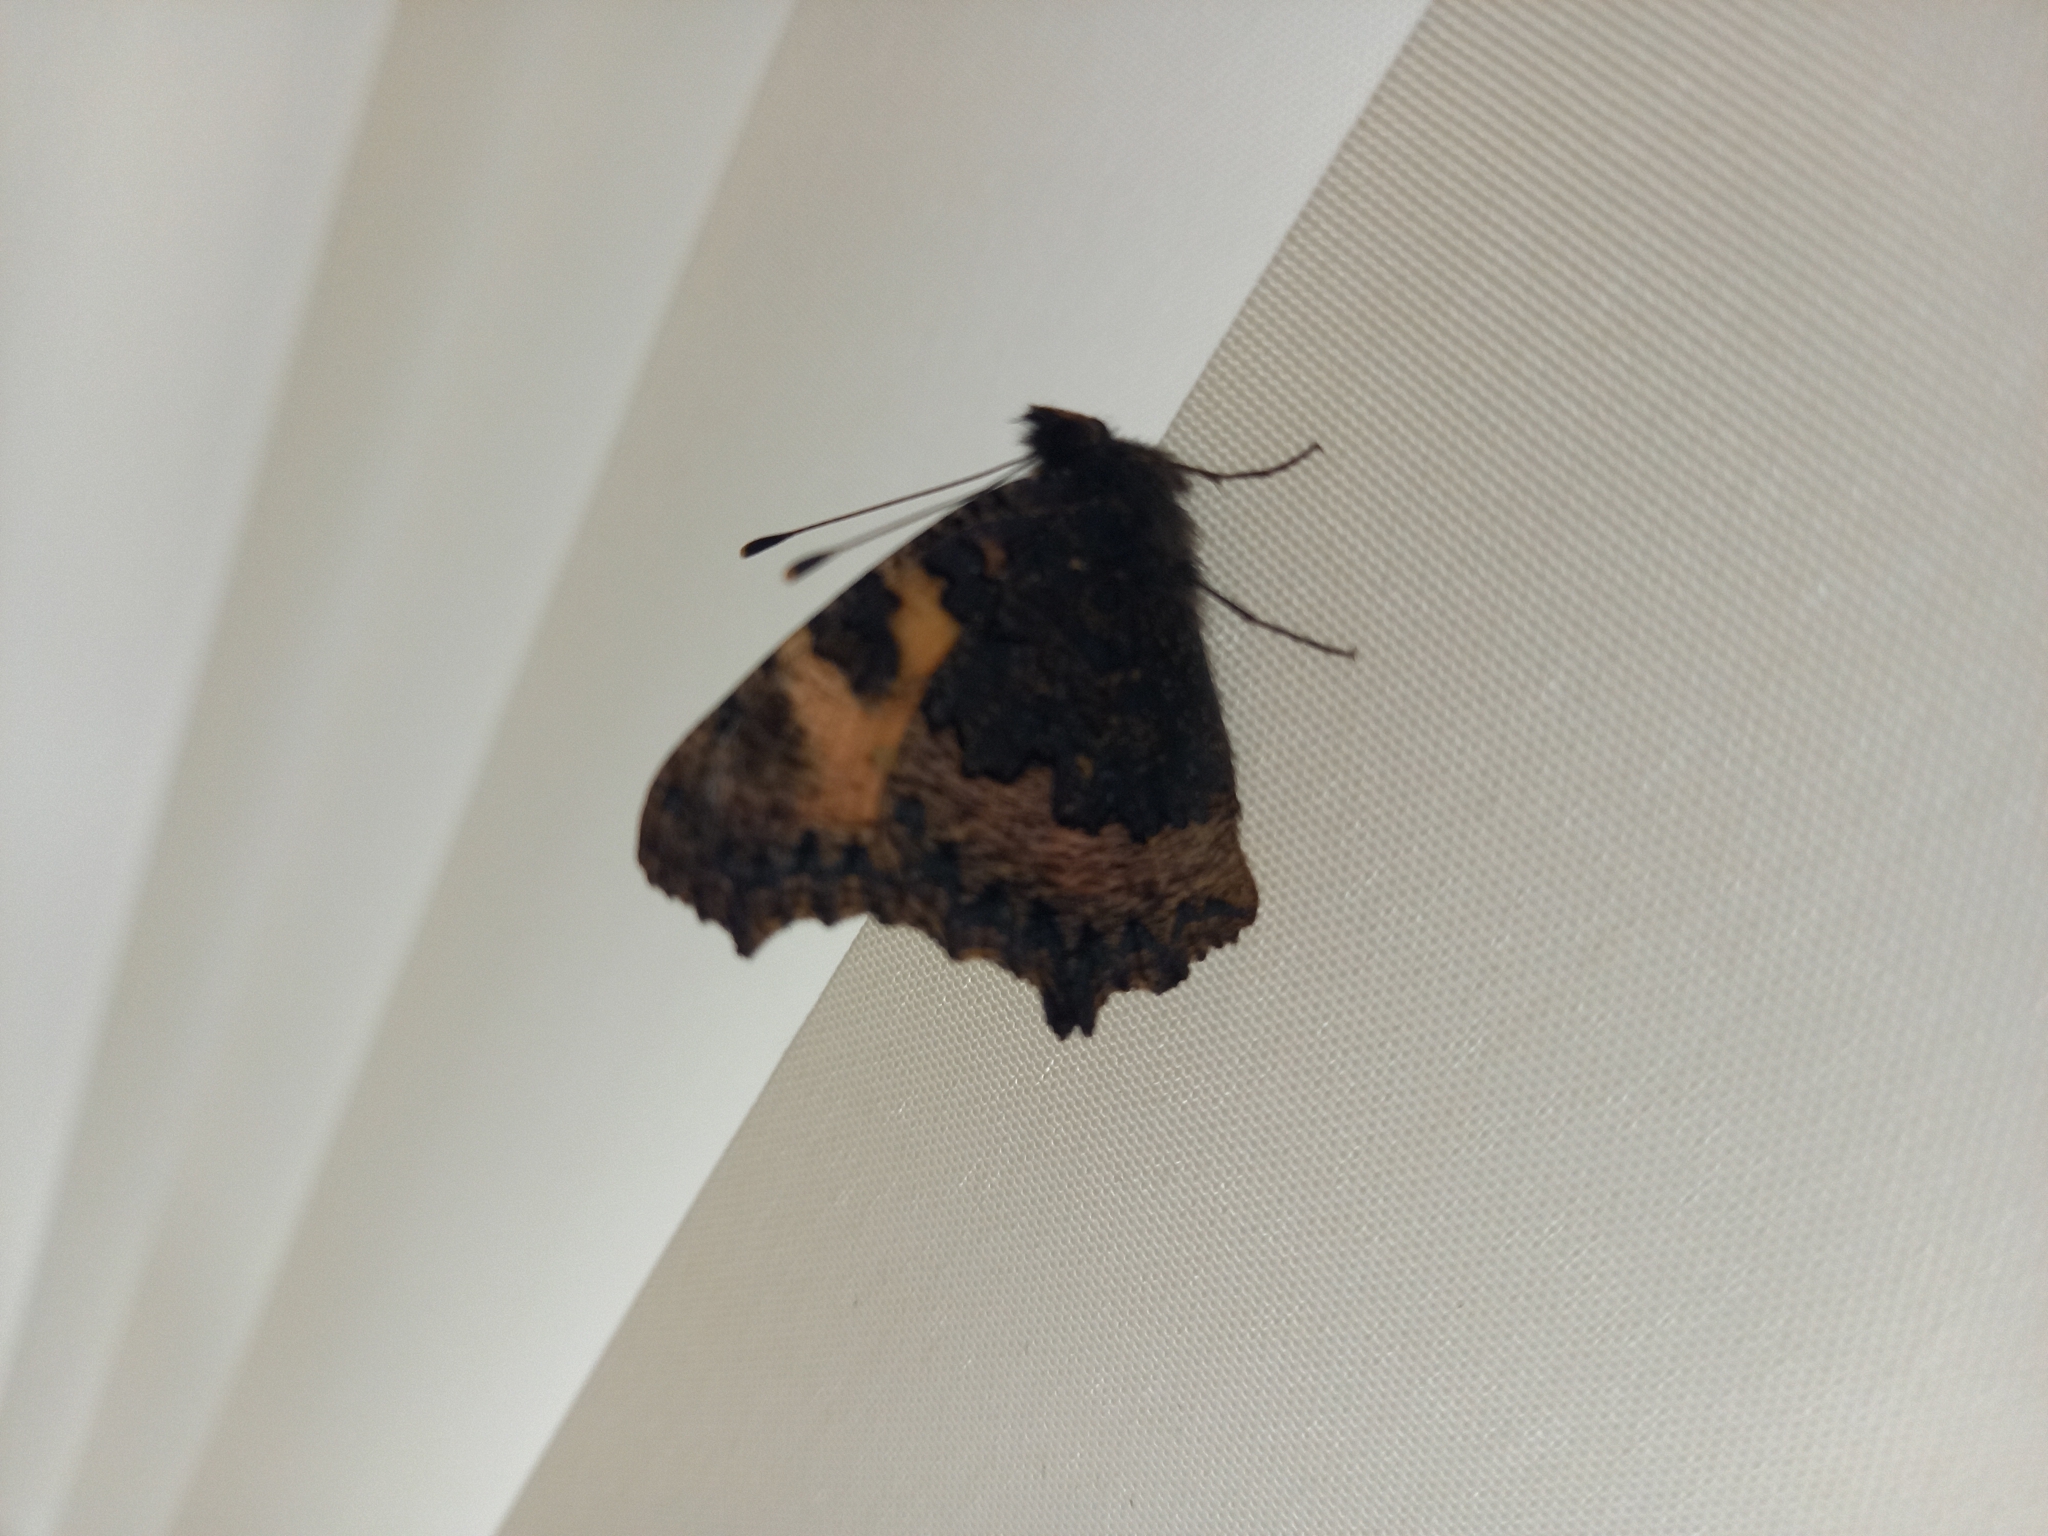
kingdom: Animalia
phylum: Arthropoda
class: Insecta
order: Lepidoptera
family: Nymphalidae
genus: Aglais
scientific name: Aglais urticae
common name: Small tortoiseshell
